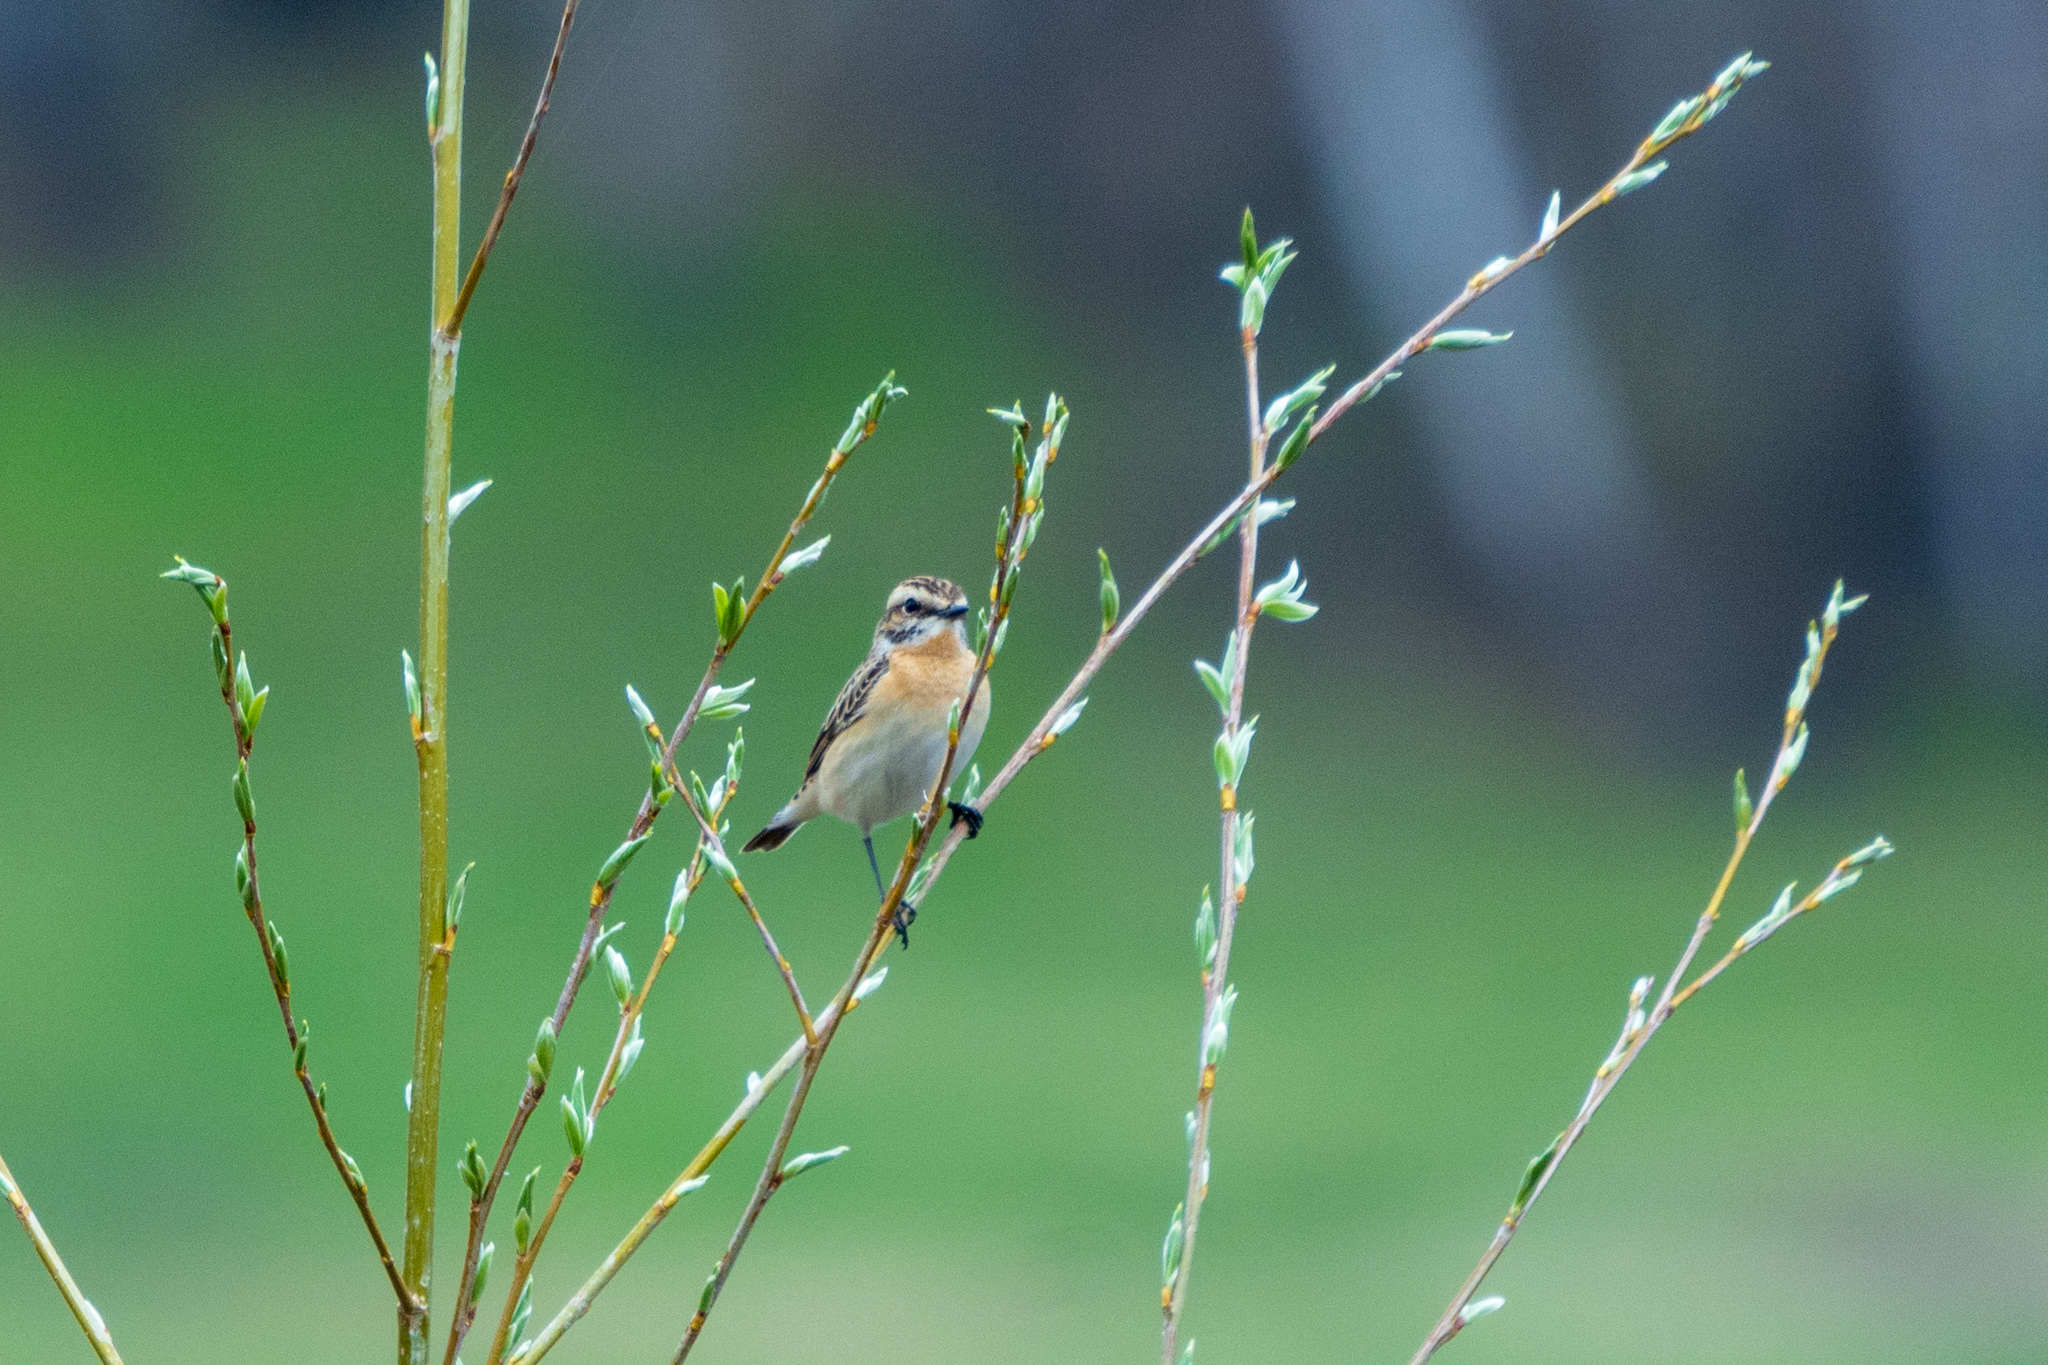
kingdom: Animalia
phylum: Chordata
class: Aves
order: Passeriformes
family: Muscicapidae
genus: Saxicola
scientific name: Saxicola rubetra
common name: Whinchat
